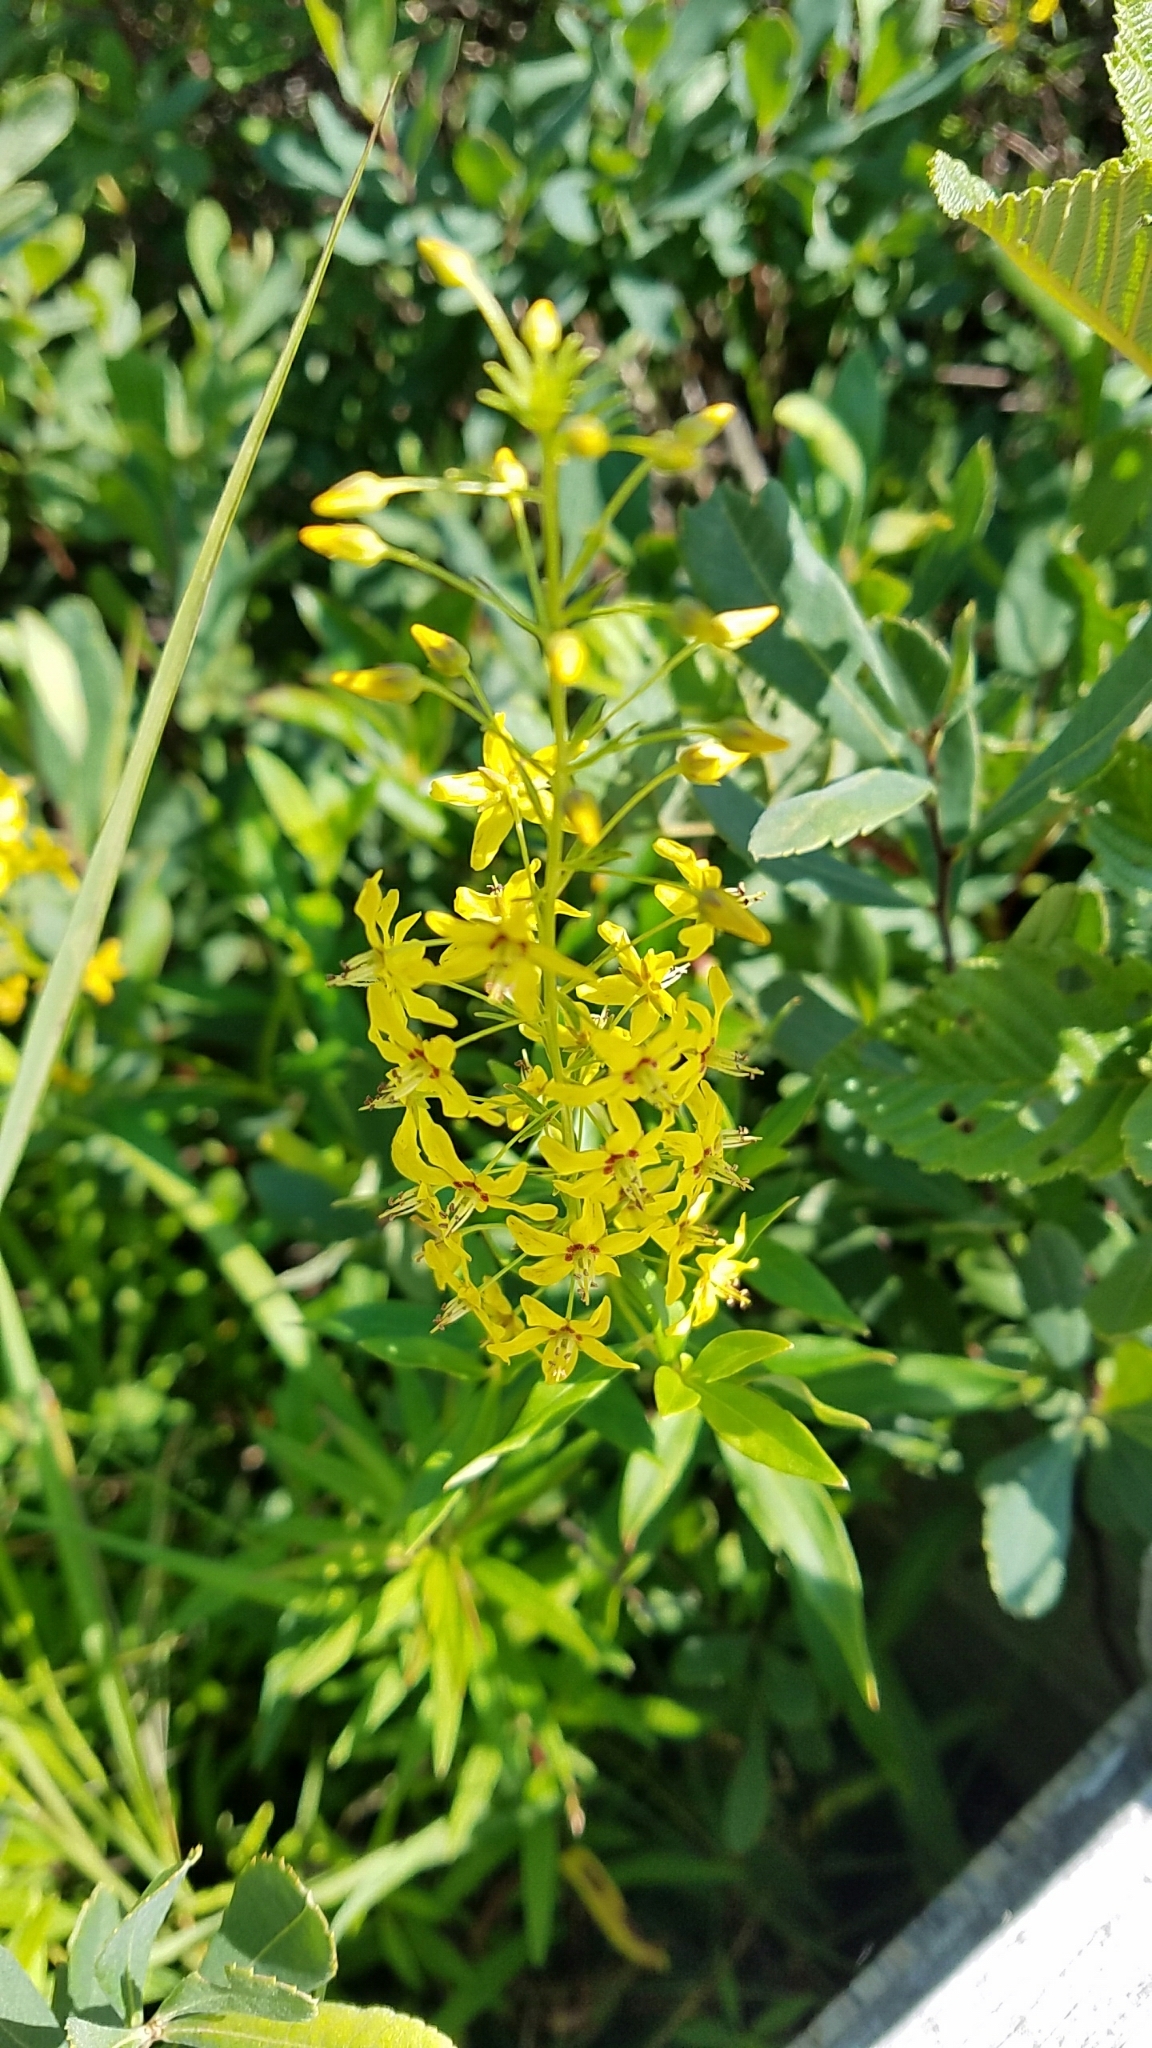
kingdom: Plantae
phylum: Tracheophyta
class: Magnoliopsida
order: Ericales
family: Primulaceae
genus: Lysimachia
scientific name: Lysimachia terrestris
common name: Lake loosestrife
